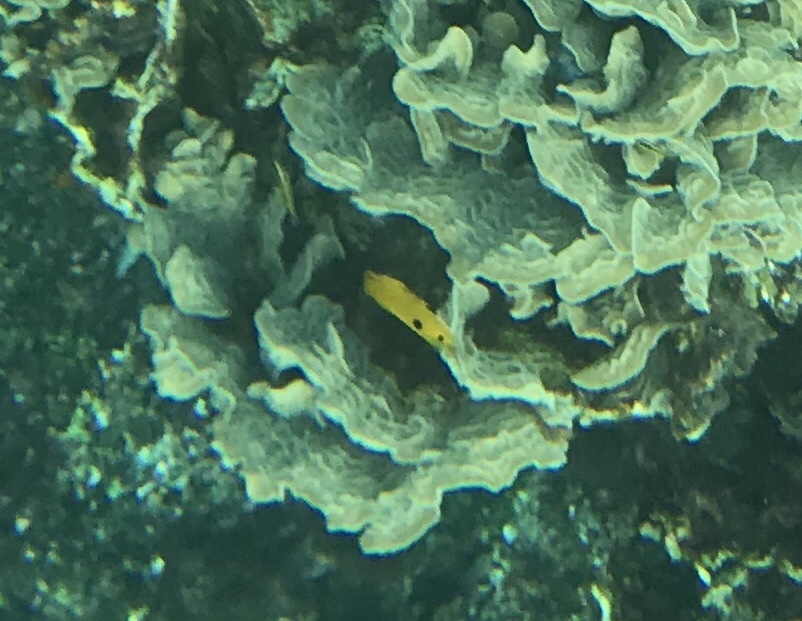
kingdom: Animalia
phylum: Chordata
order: Perciformes
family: Pomacentridae
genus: Stegastes
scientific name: Stegastes planifrons
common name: Threespot damselfish
